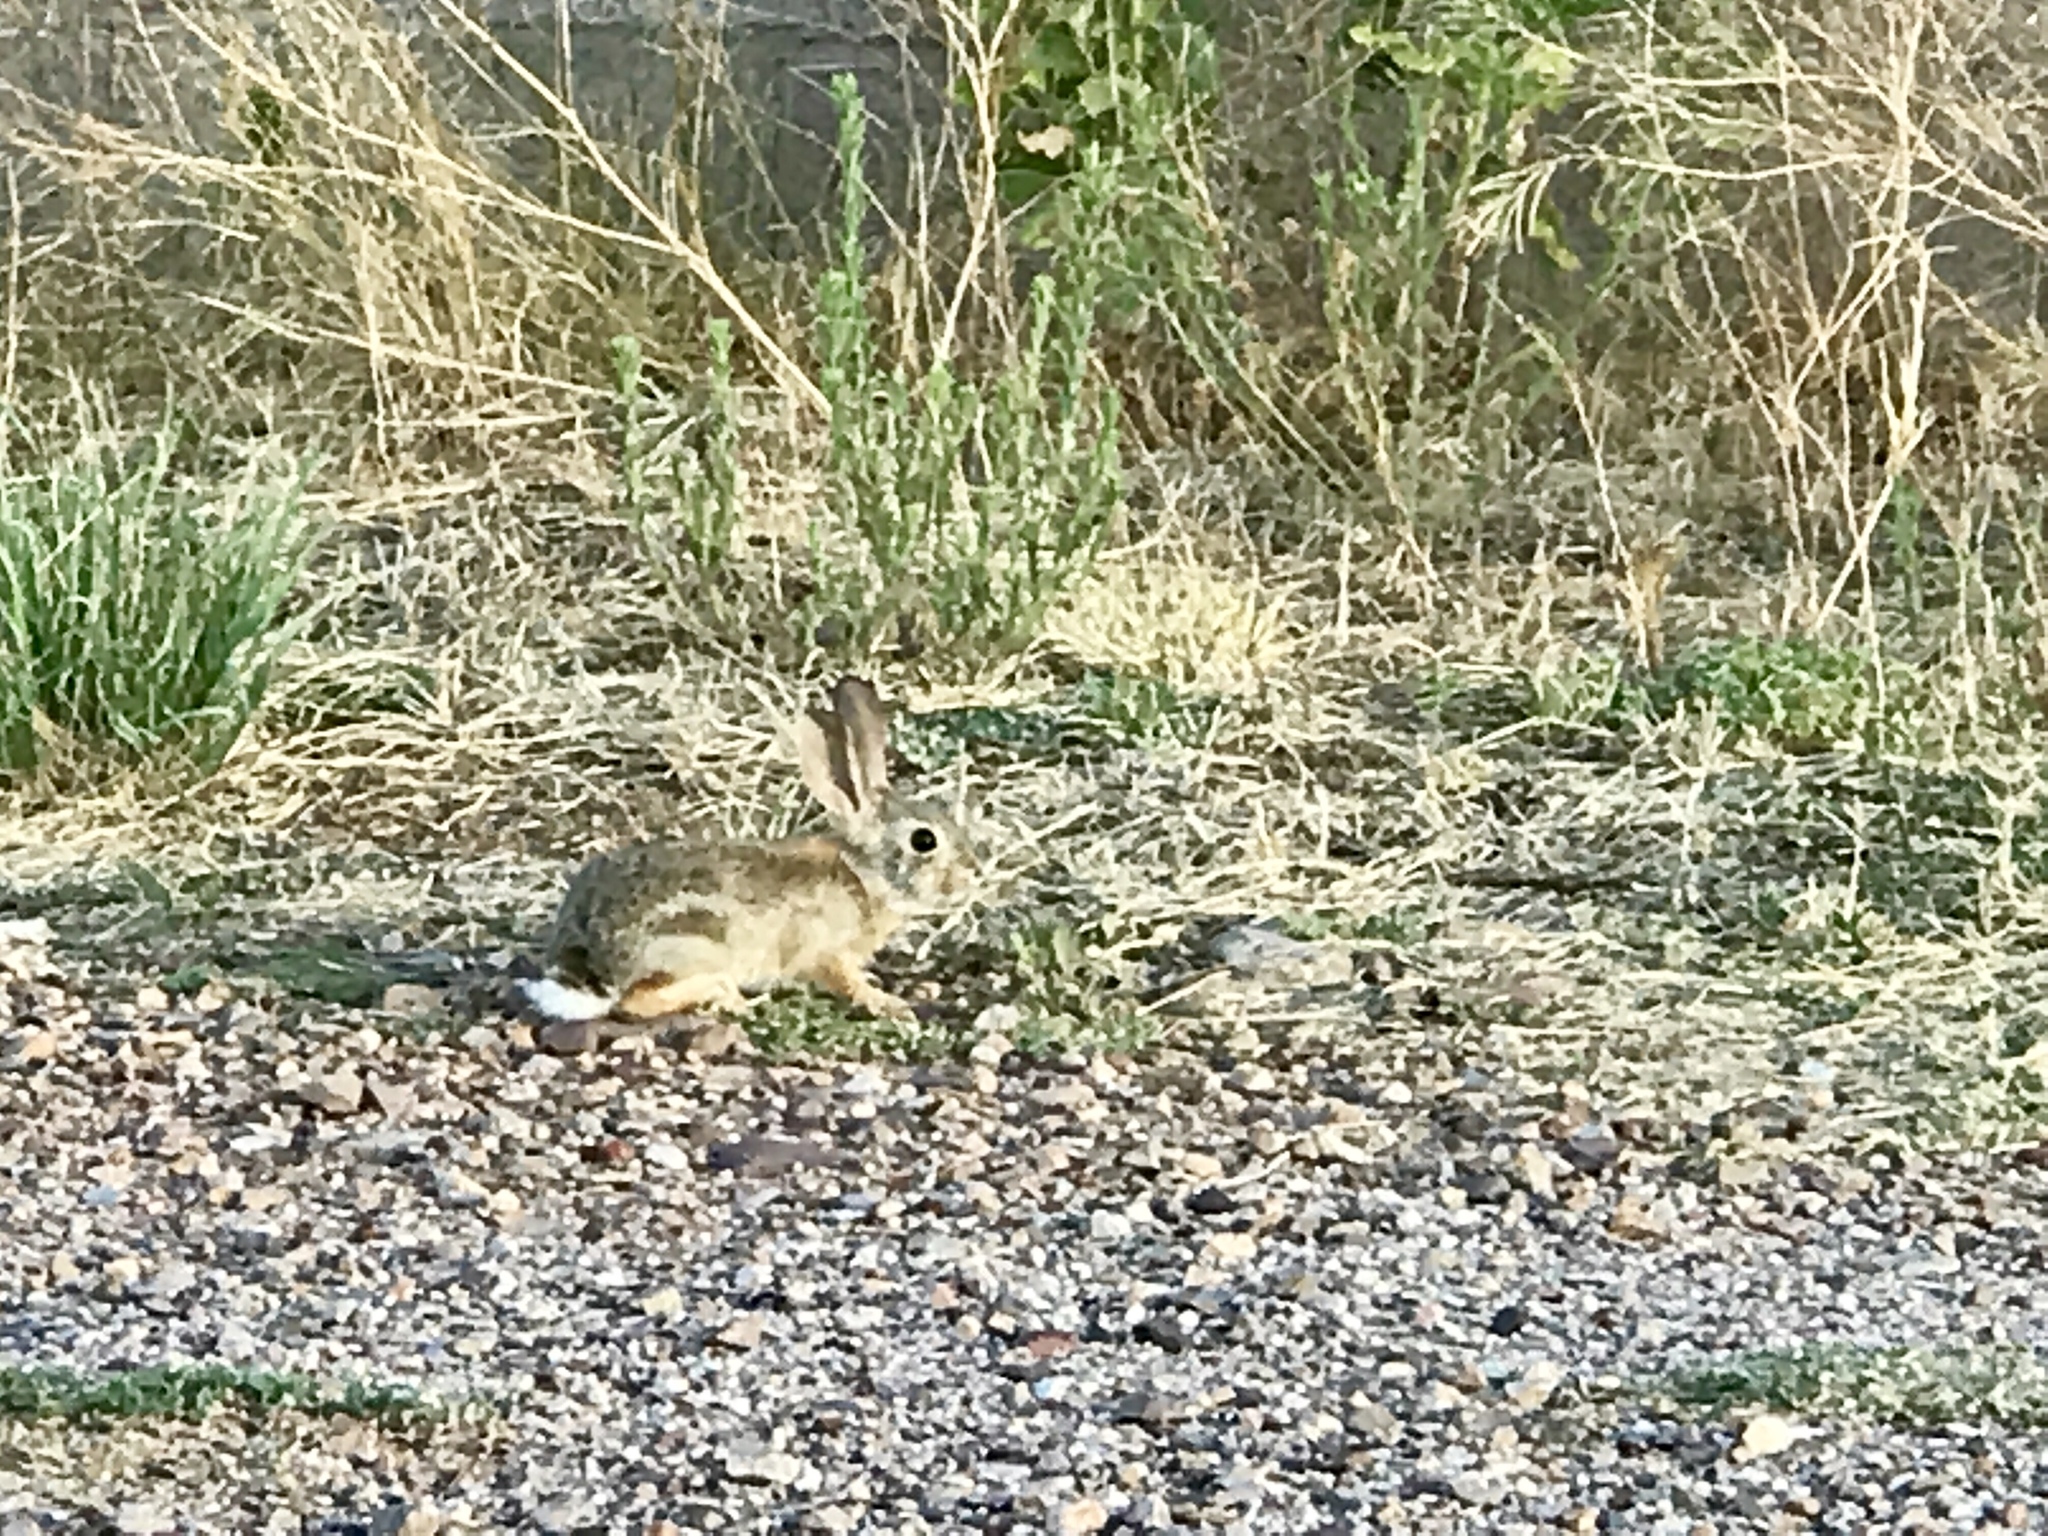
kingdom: Animalia
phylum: Chordata
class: Mammalia
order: Lagomorpha
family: Leporidae
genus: Sylvilagus
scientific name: Sylvilagus audubonii
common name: Desert cottontail
